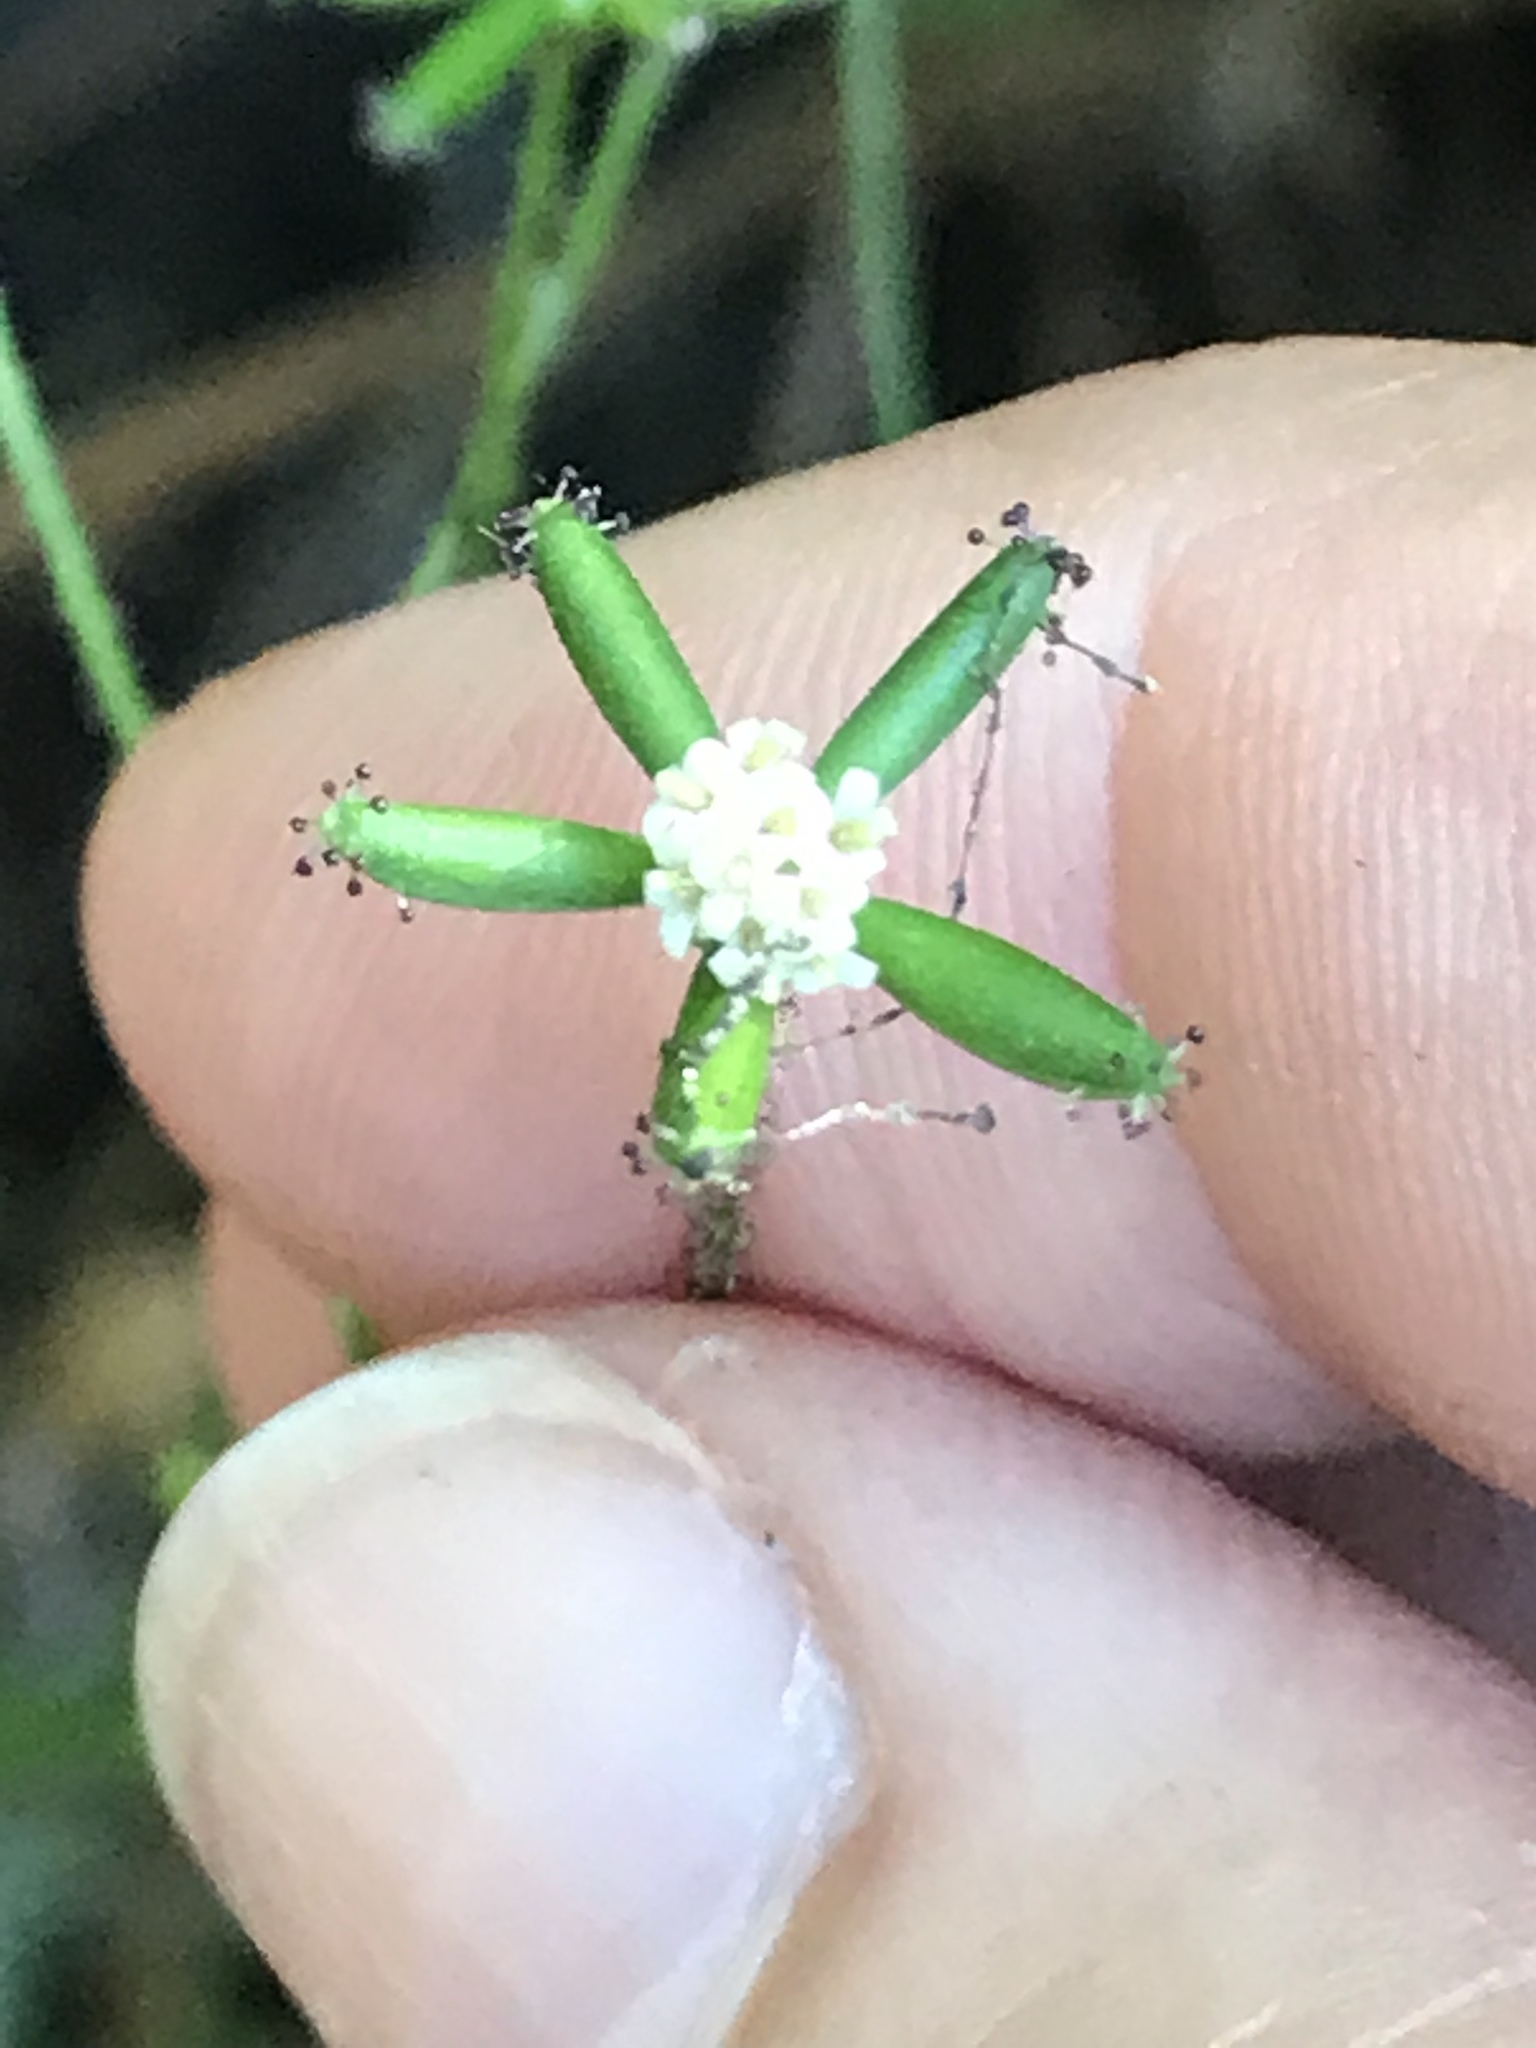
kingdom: Plantae
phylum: Tracheophyta
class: Magnoliopsida
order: Asterales
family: Asteraceae
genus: Adenocaulon
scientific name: Adenocaulon bicolor
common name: Trailplant
